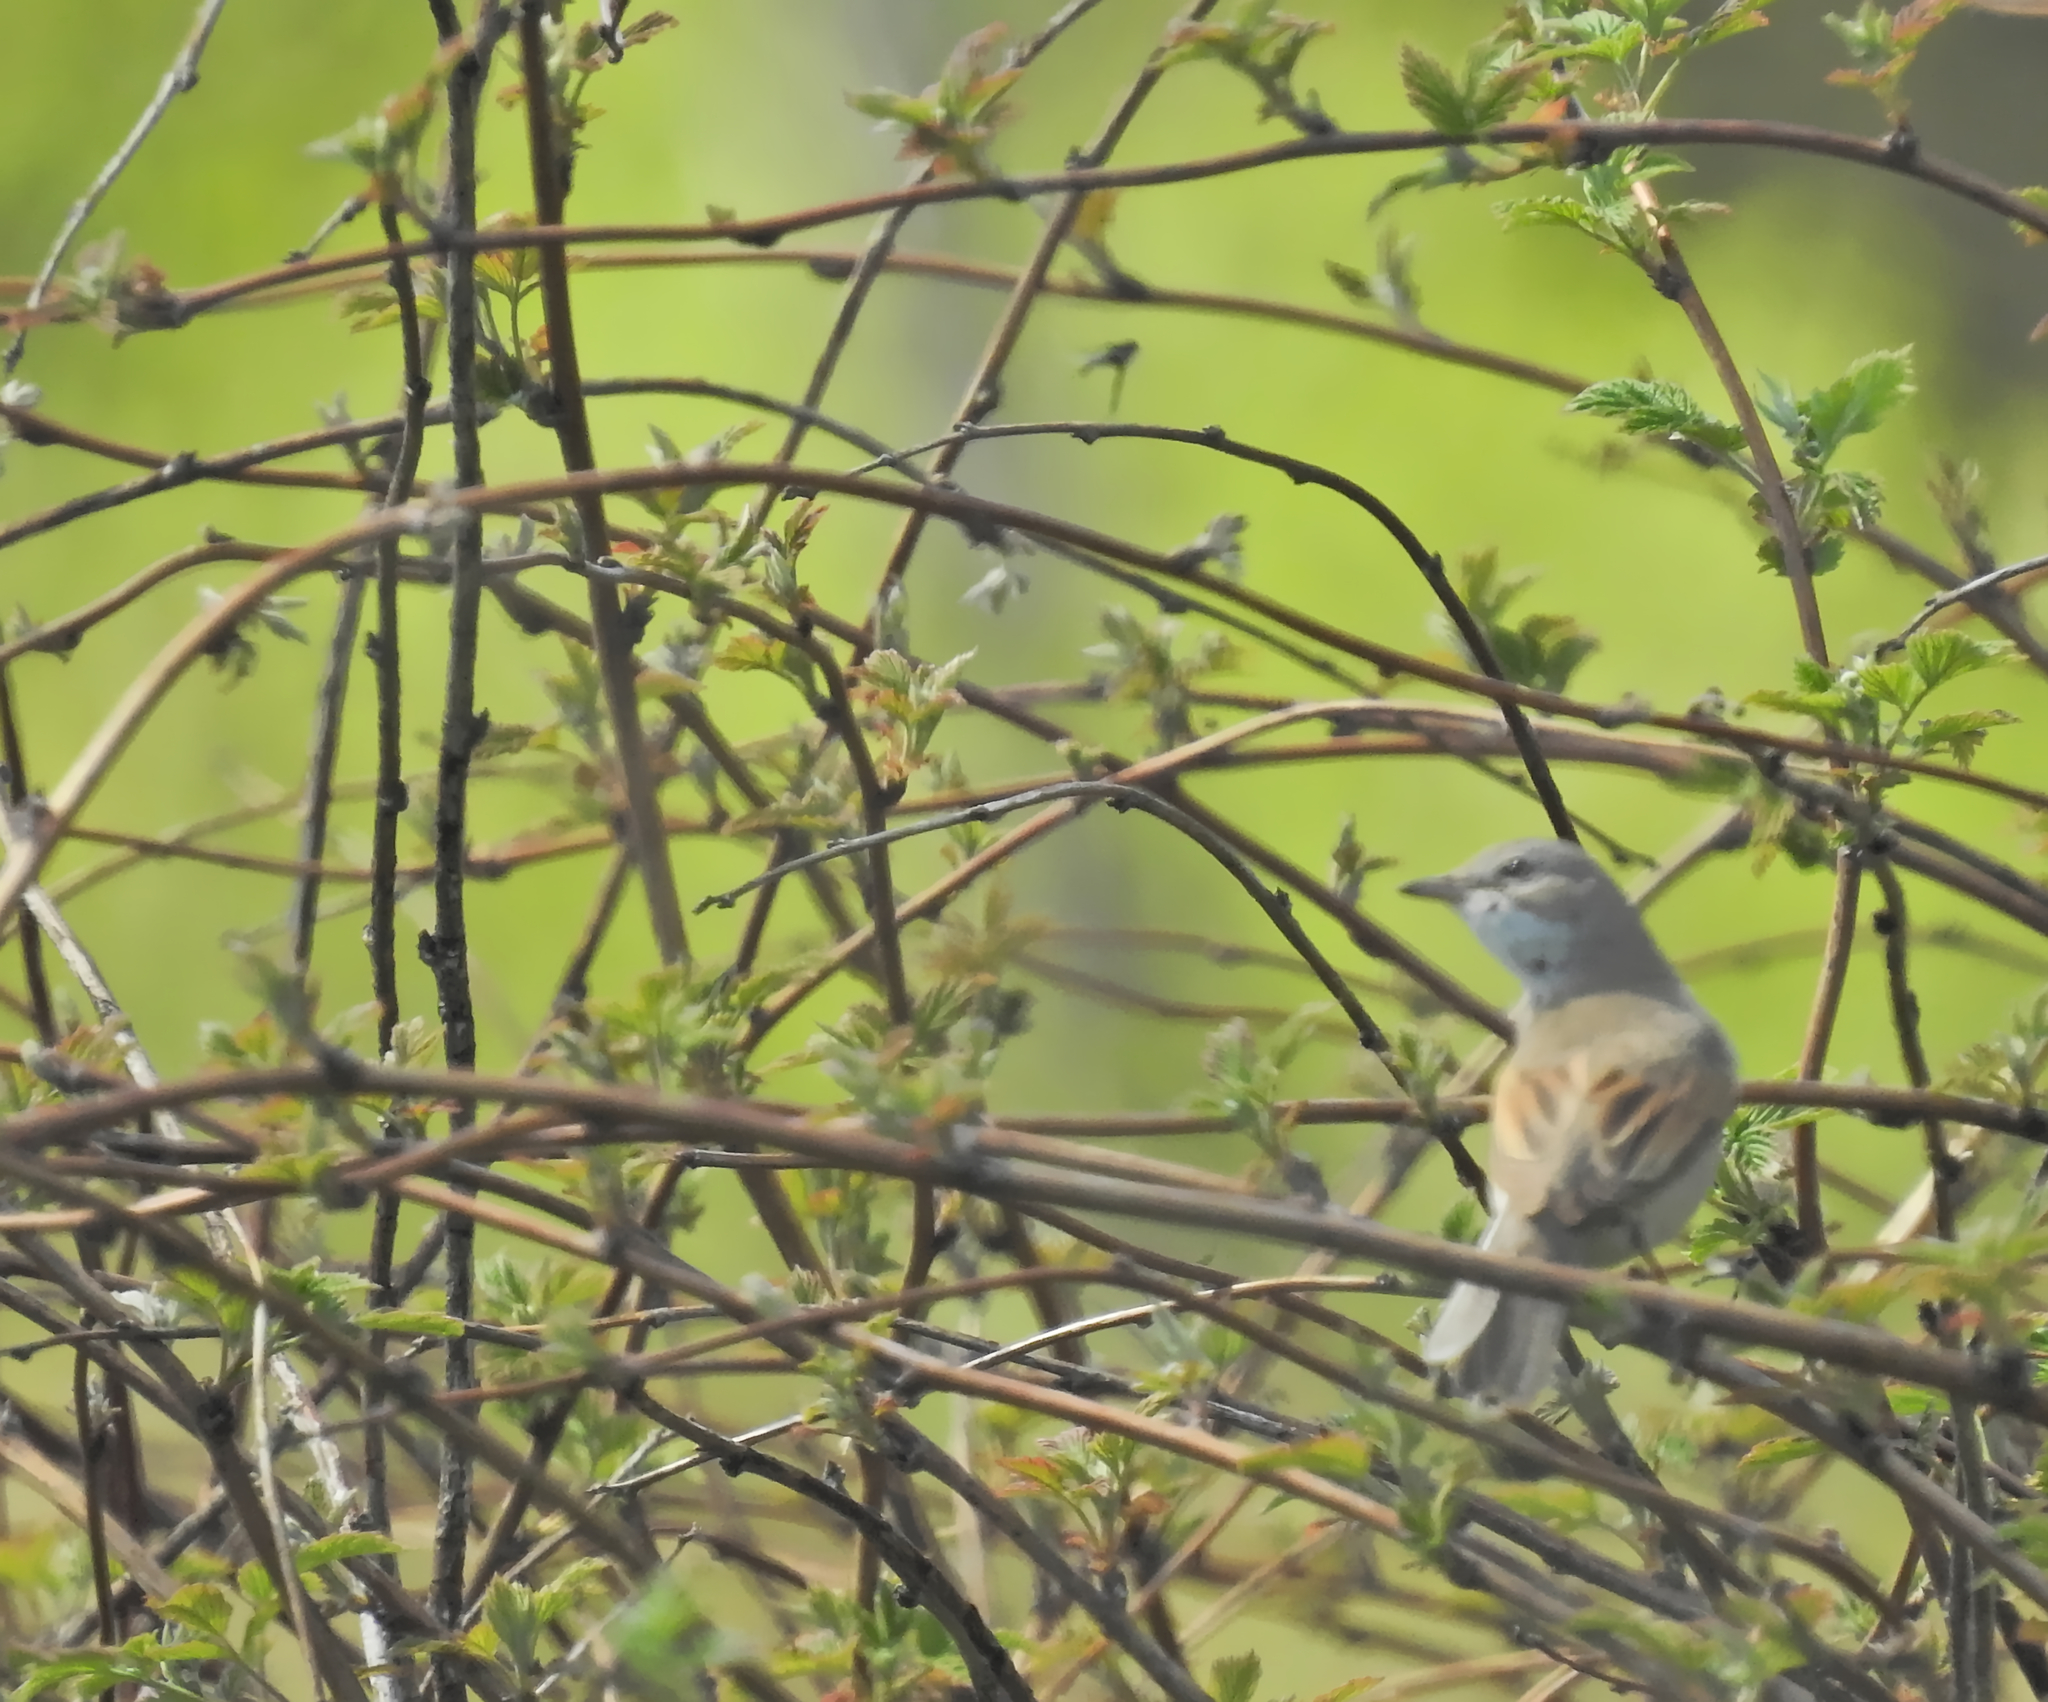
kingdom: Animalia
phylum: Chordata
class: Aves
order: Passeriformes
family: Sylviidae
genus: Sylvia
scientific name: Sylvia communis
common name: Common whitethroat
